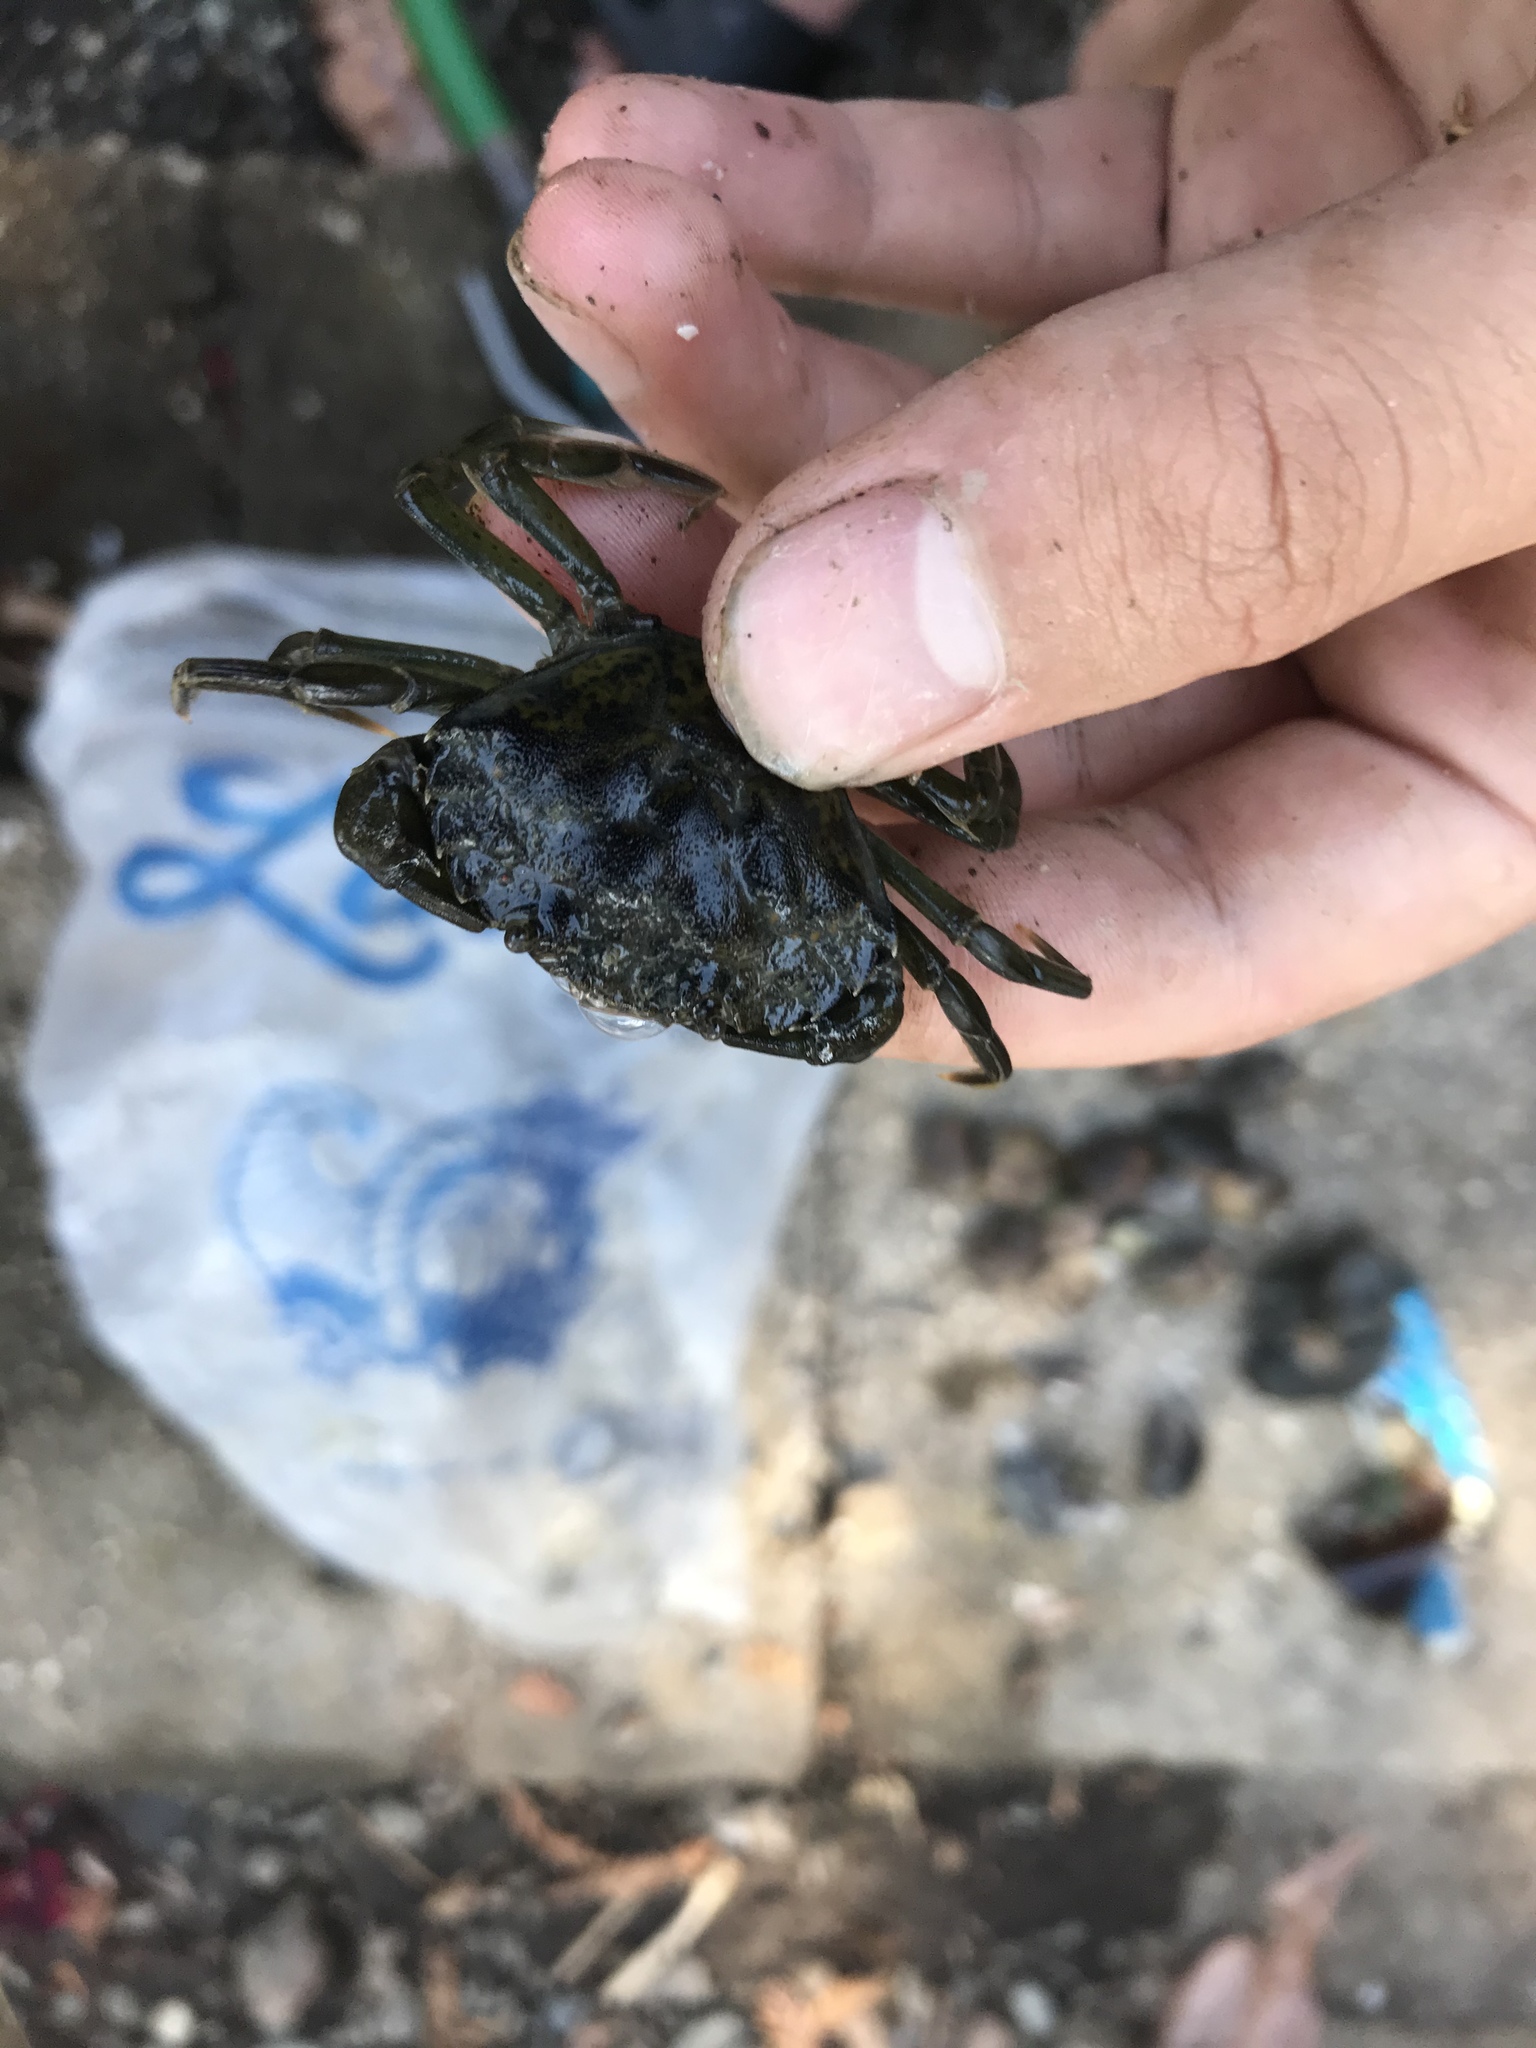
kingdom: Animalia
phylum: Arthropoda
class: Malacostraca
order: Decapoda
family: Carcinidae
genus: Carcinus
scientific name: Carcinus maenas
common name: European green crab
